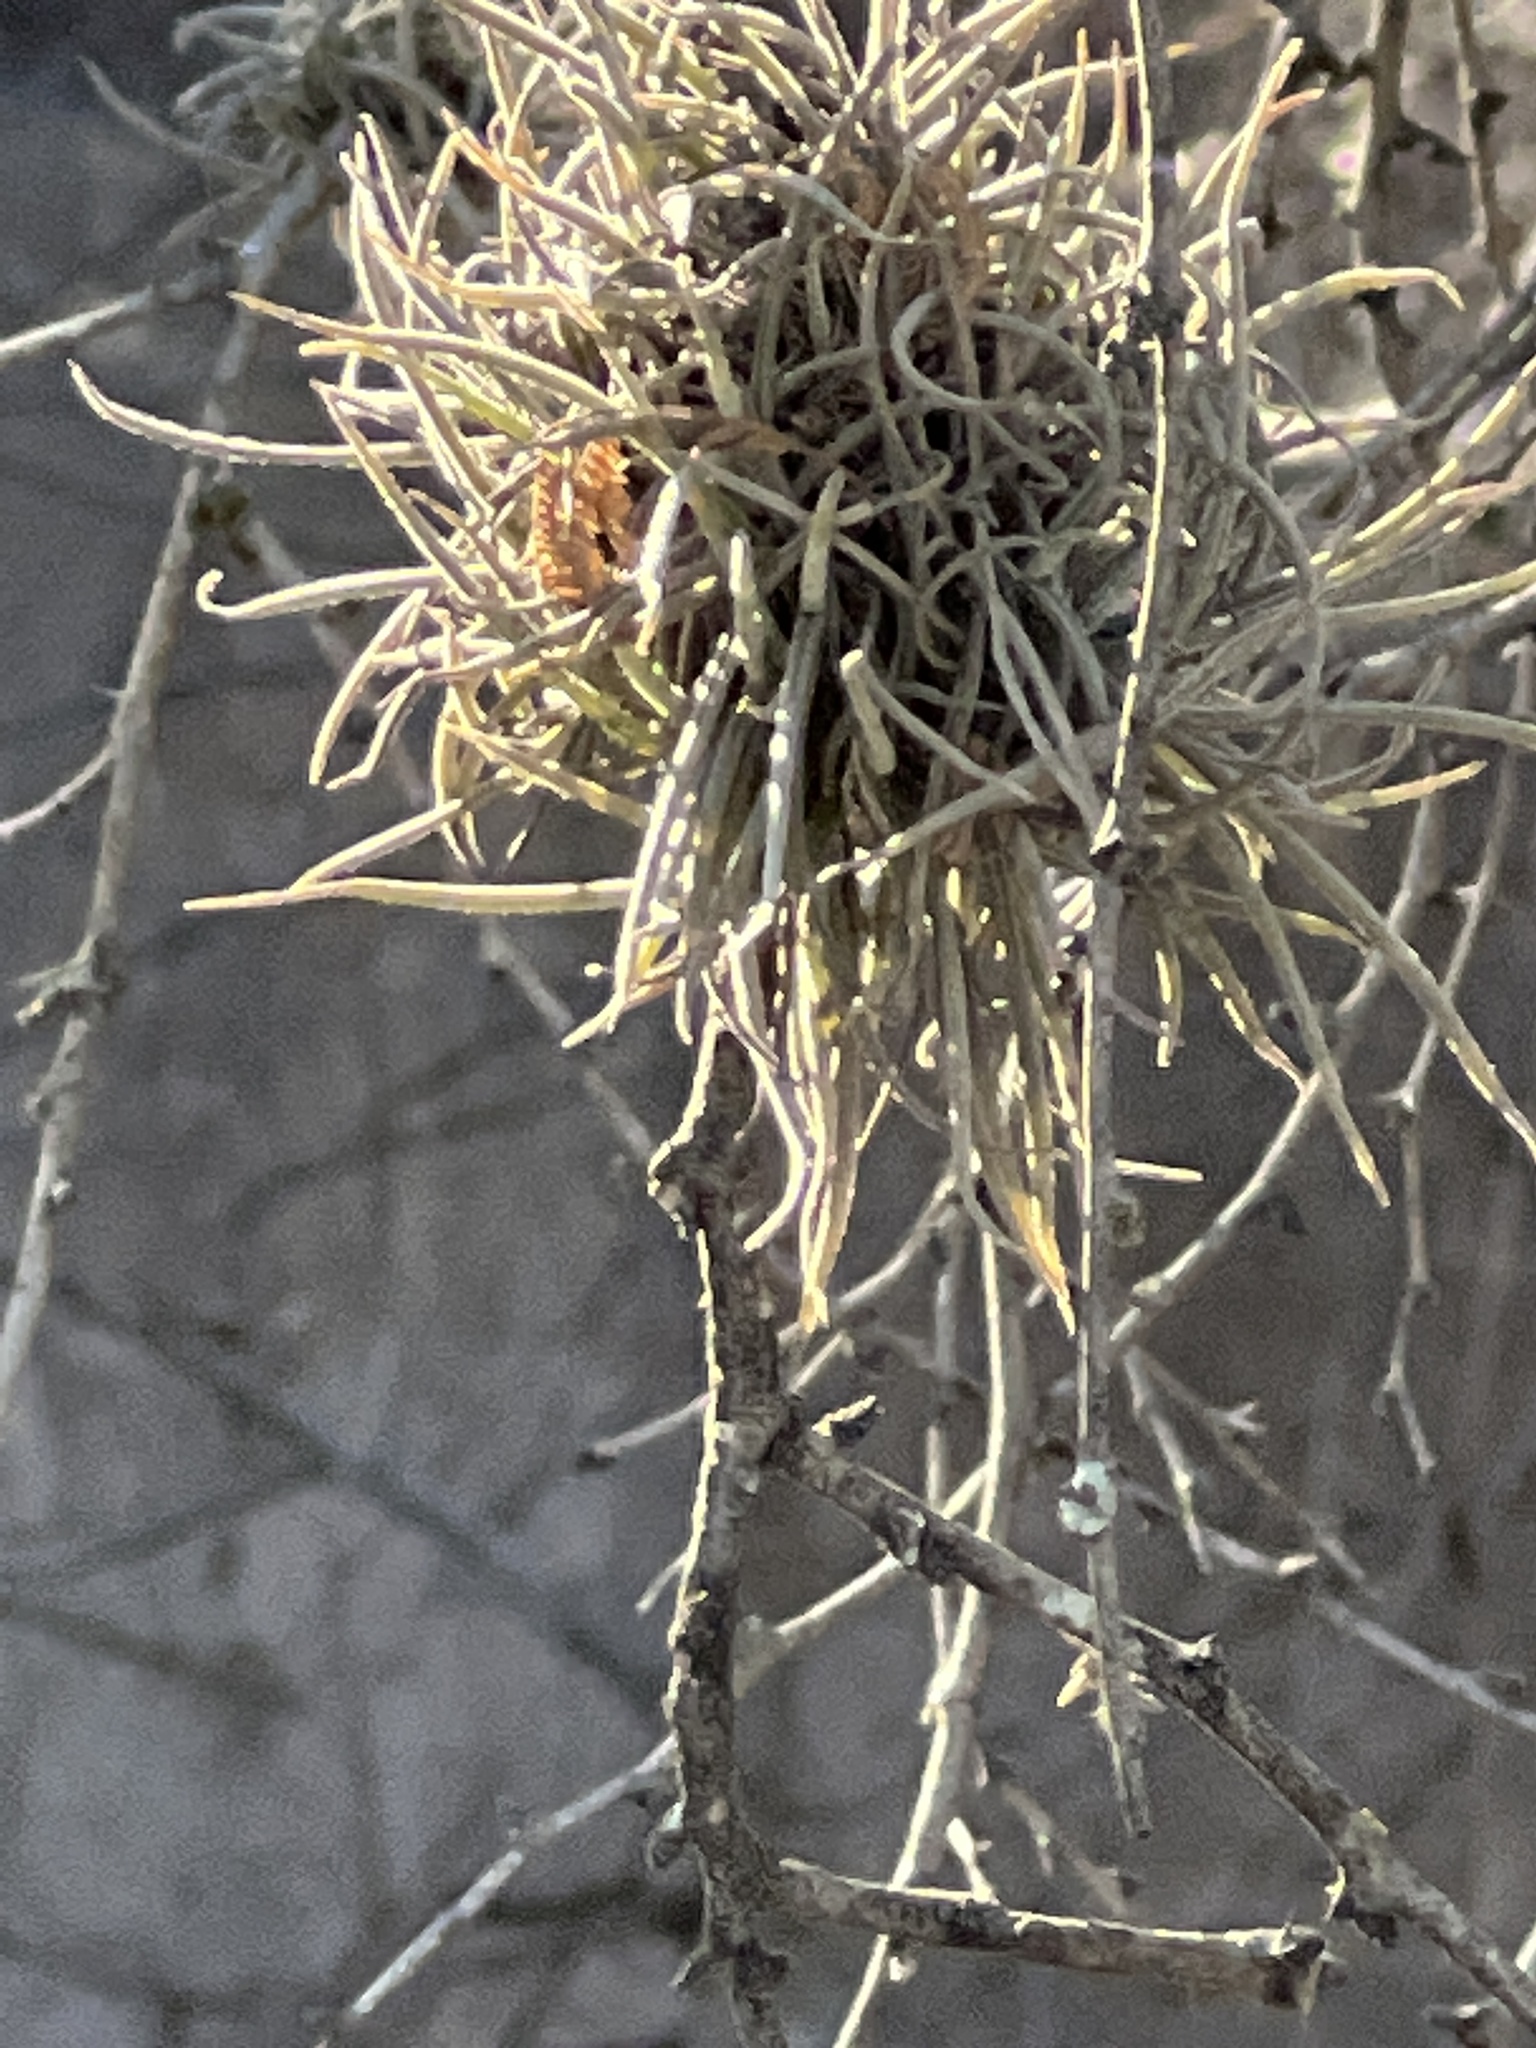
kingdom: Plantae
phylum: Tracheophyta
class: Liliopsida
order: Poales
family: Bromeliaceae
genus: Tillandsia
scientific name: Tillandsia recurvata
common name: Small ballmoss
